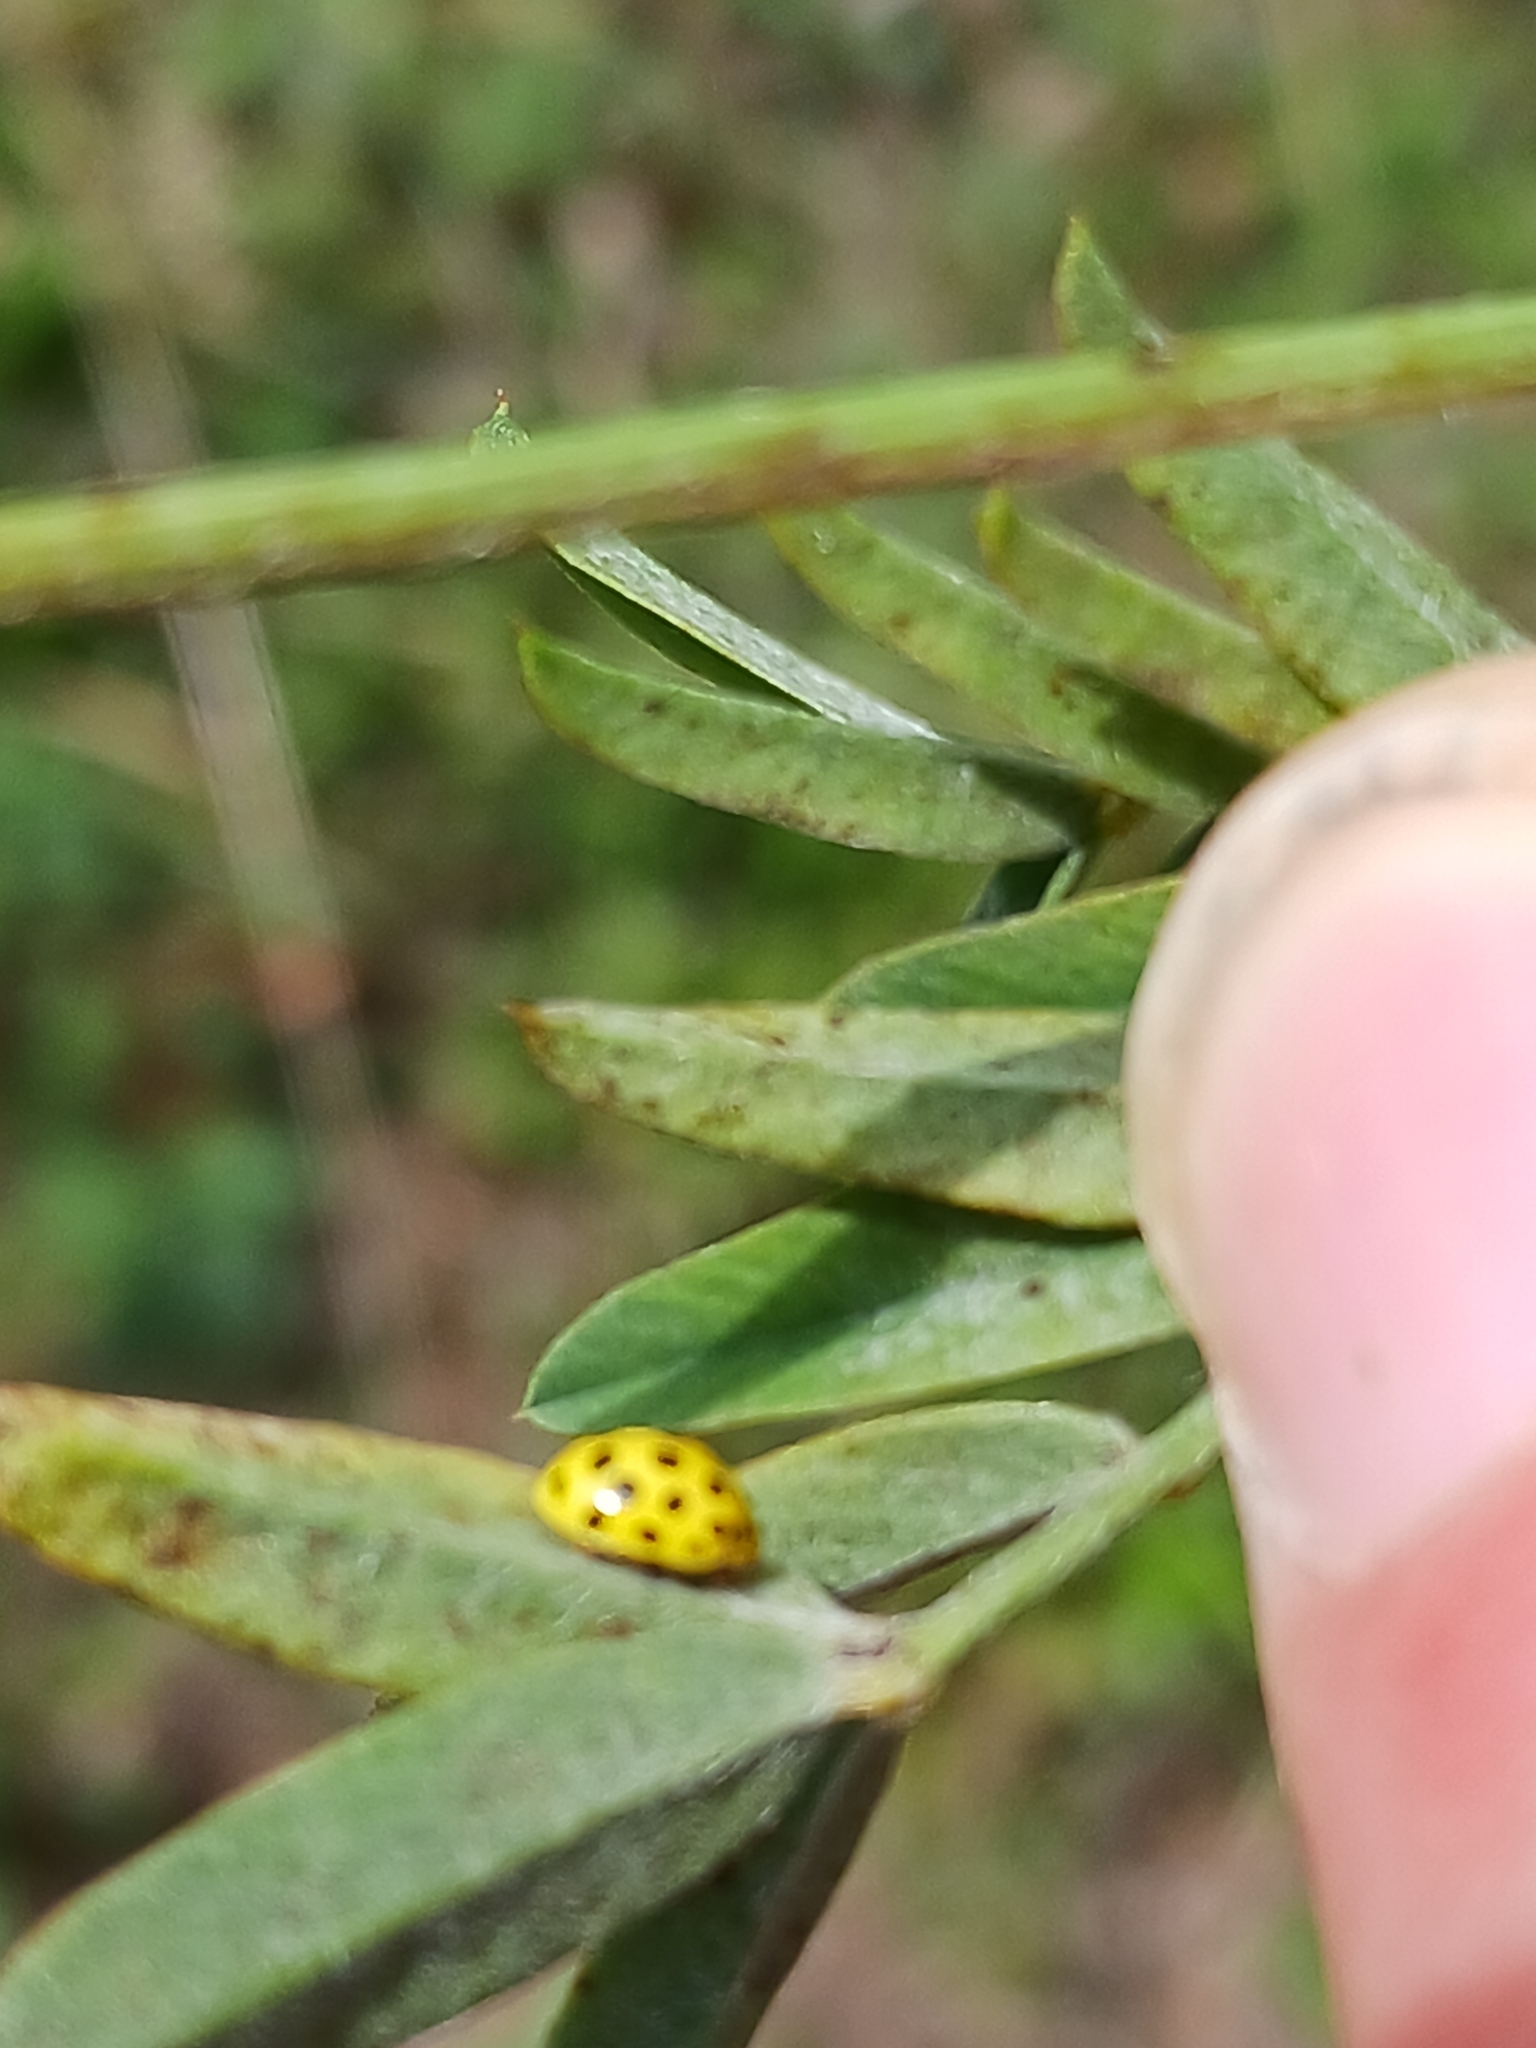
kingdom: Animalia
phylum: Arthropoda
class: Insecta
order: Coleoptera
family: Coccinellidae
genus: Psyllobora
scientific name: Psyllobora vigintiduopunctata
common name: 22-spot ladybird
